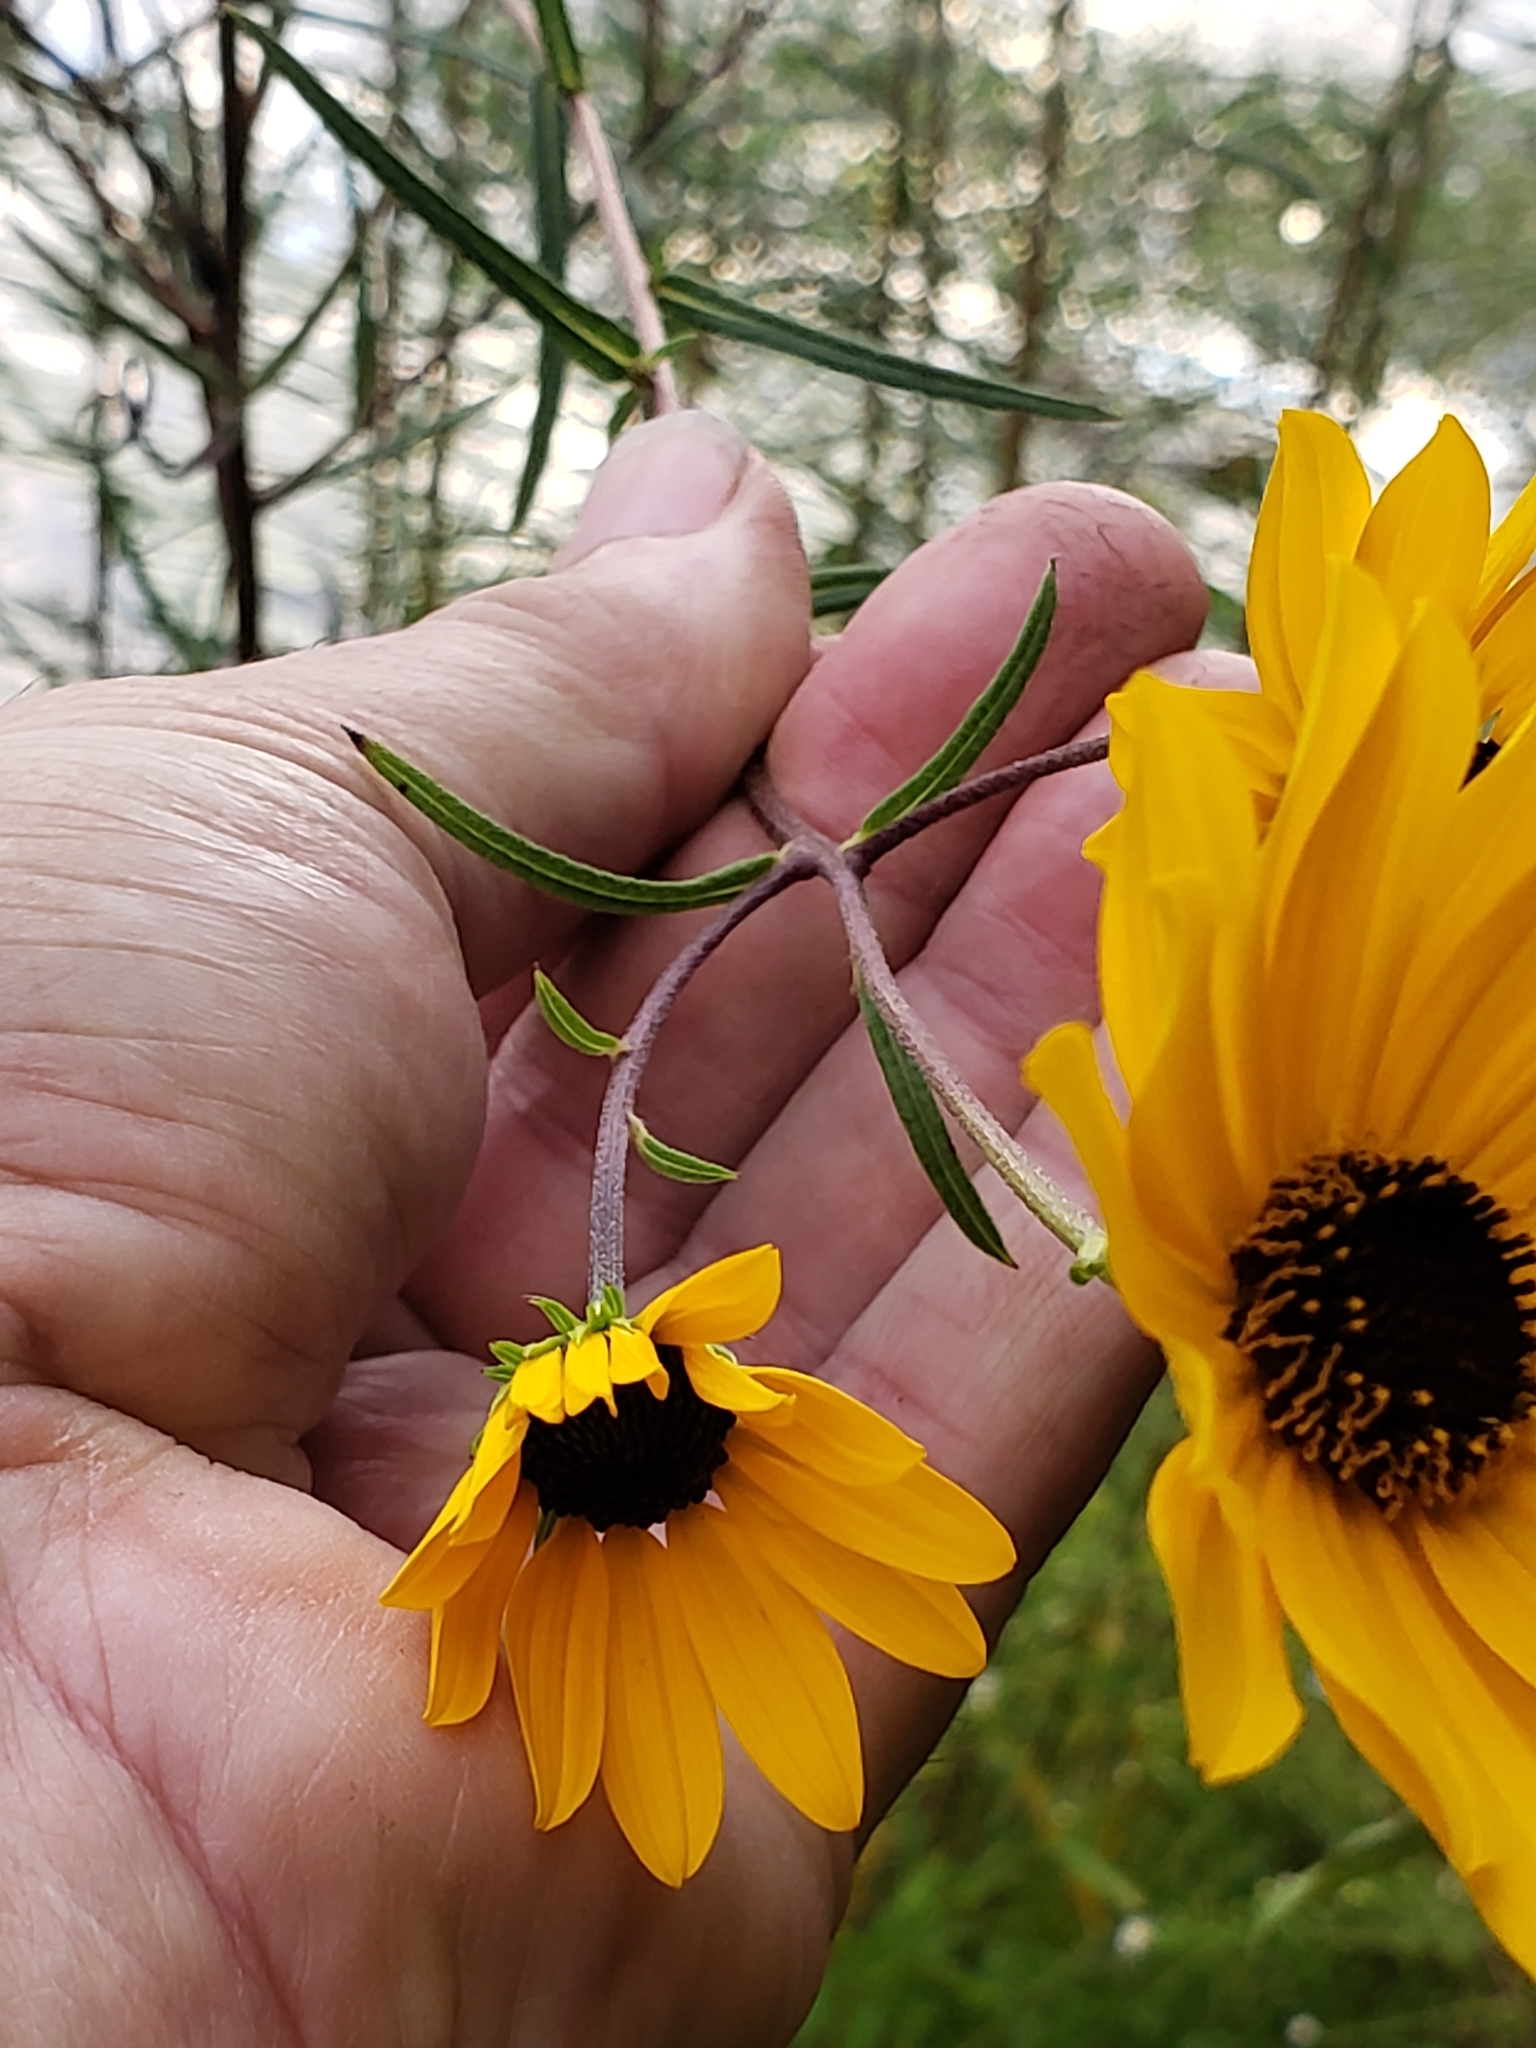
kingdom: Plantae
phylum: Tracheophyta
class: Magnoliopsida
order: Asterales
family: Asteraceae
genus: Helianthus
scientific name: Helianthus angustifolius
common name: Swamp sunflower
